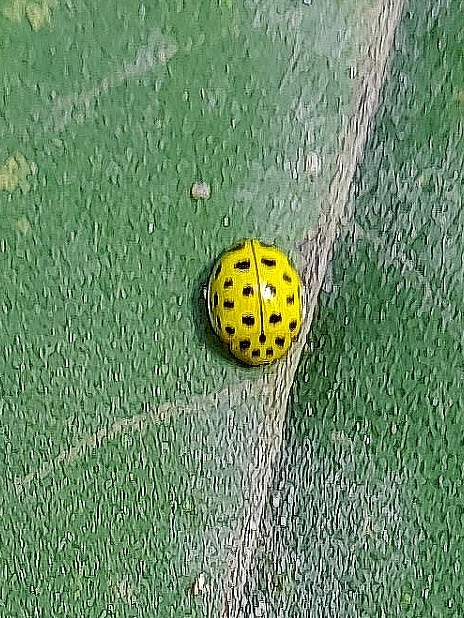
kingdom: Animalia
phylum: Arthropoda
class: Insecta
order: Coleoptera
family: Coccinellidae
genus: Psyllobora
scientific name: Psyllobora vigintiduopunctata
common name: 22-spot ladybird
